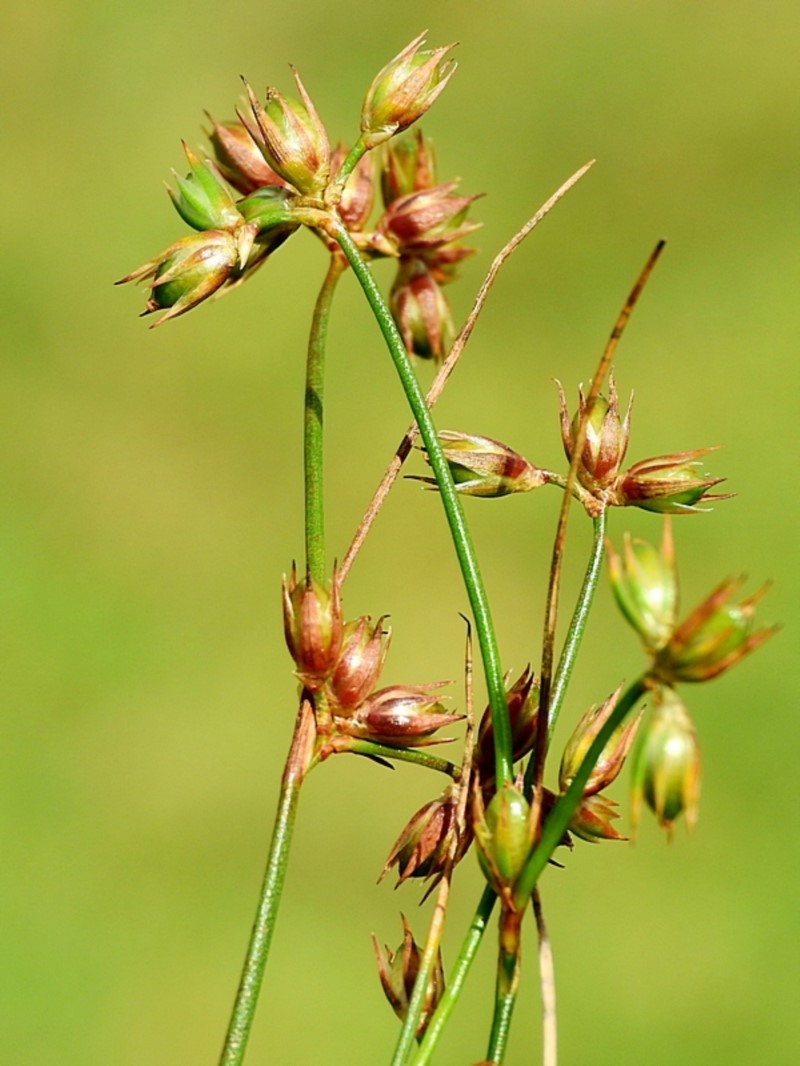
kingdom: Plantae
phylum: Tracheophyta
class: Liliopsida
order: Poales
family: Juncaceae
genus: Juncus
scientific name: Juncus homalocaulis
